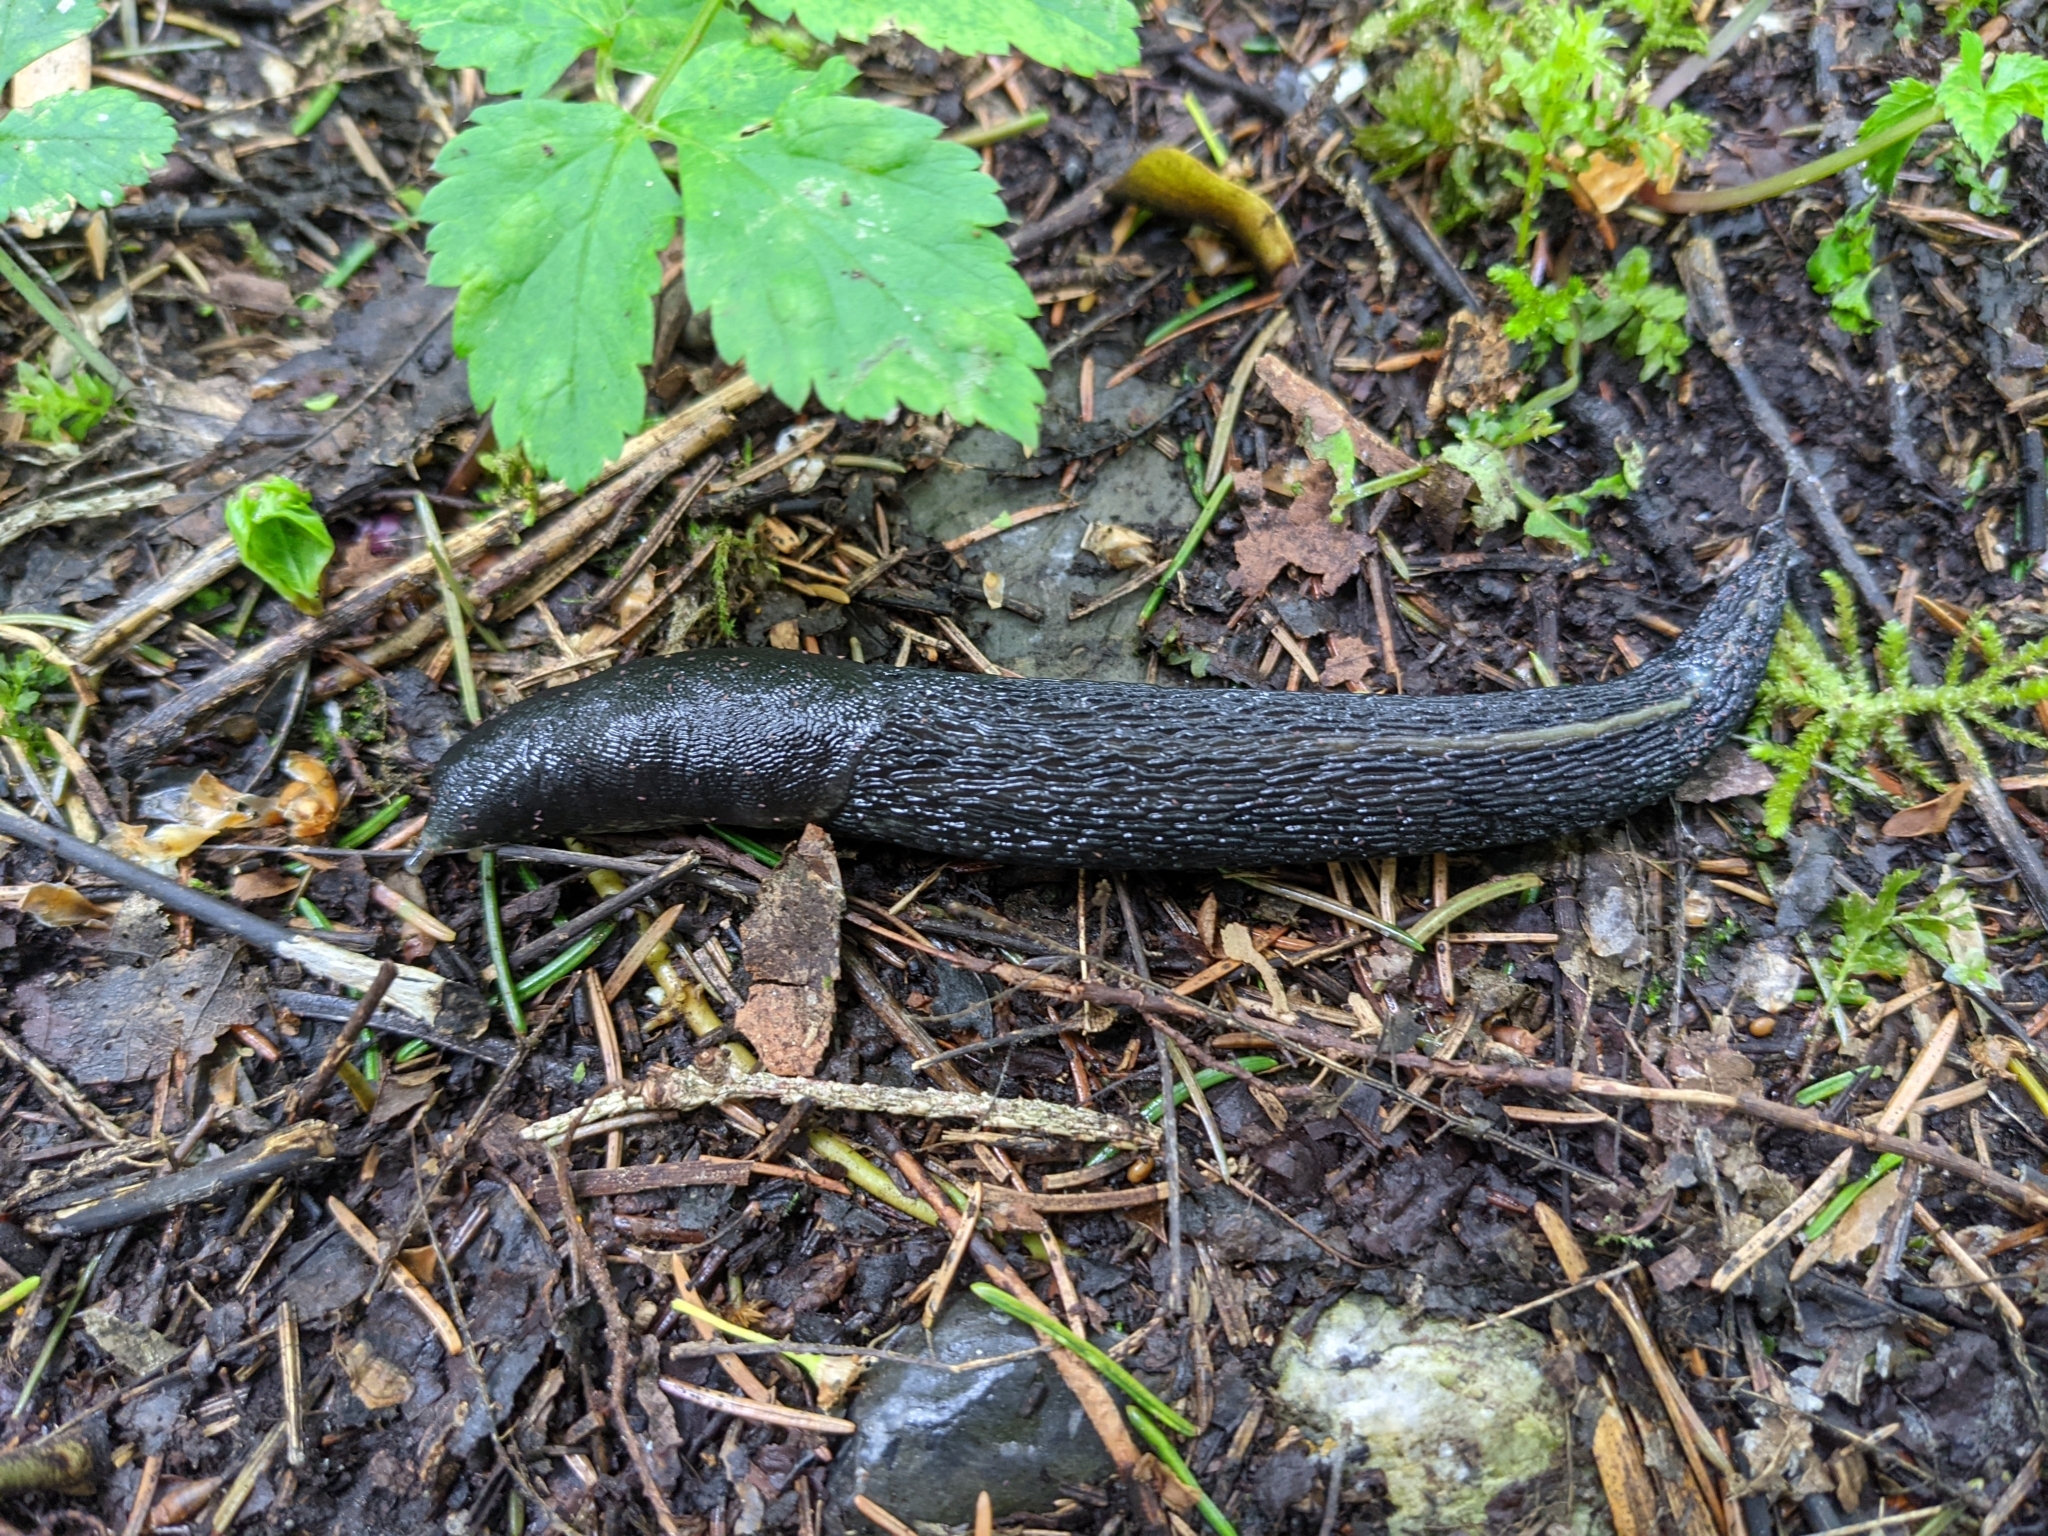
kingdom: Animalia
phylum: Mollusca
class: Gastropoda
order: Stylommatophora
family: Limacidae
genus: Limax
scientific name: Limax cinereoniger
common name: Ash-black slug
